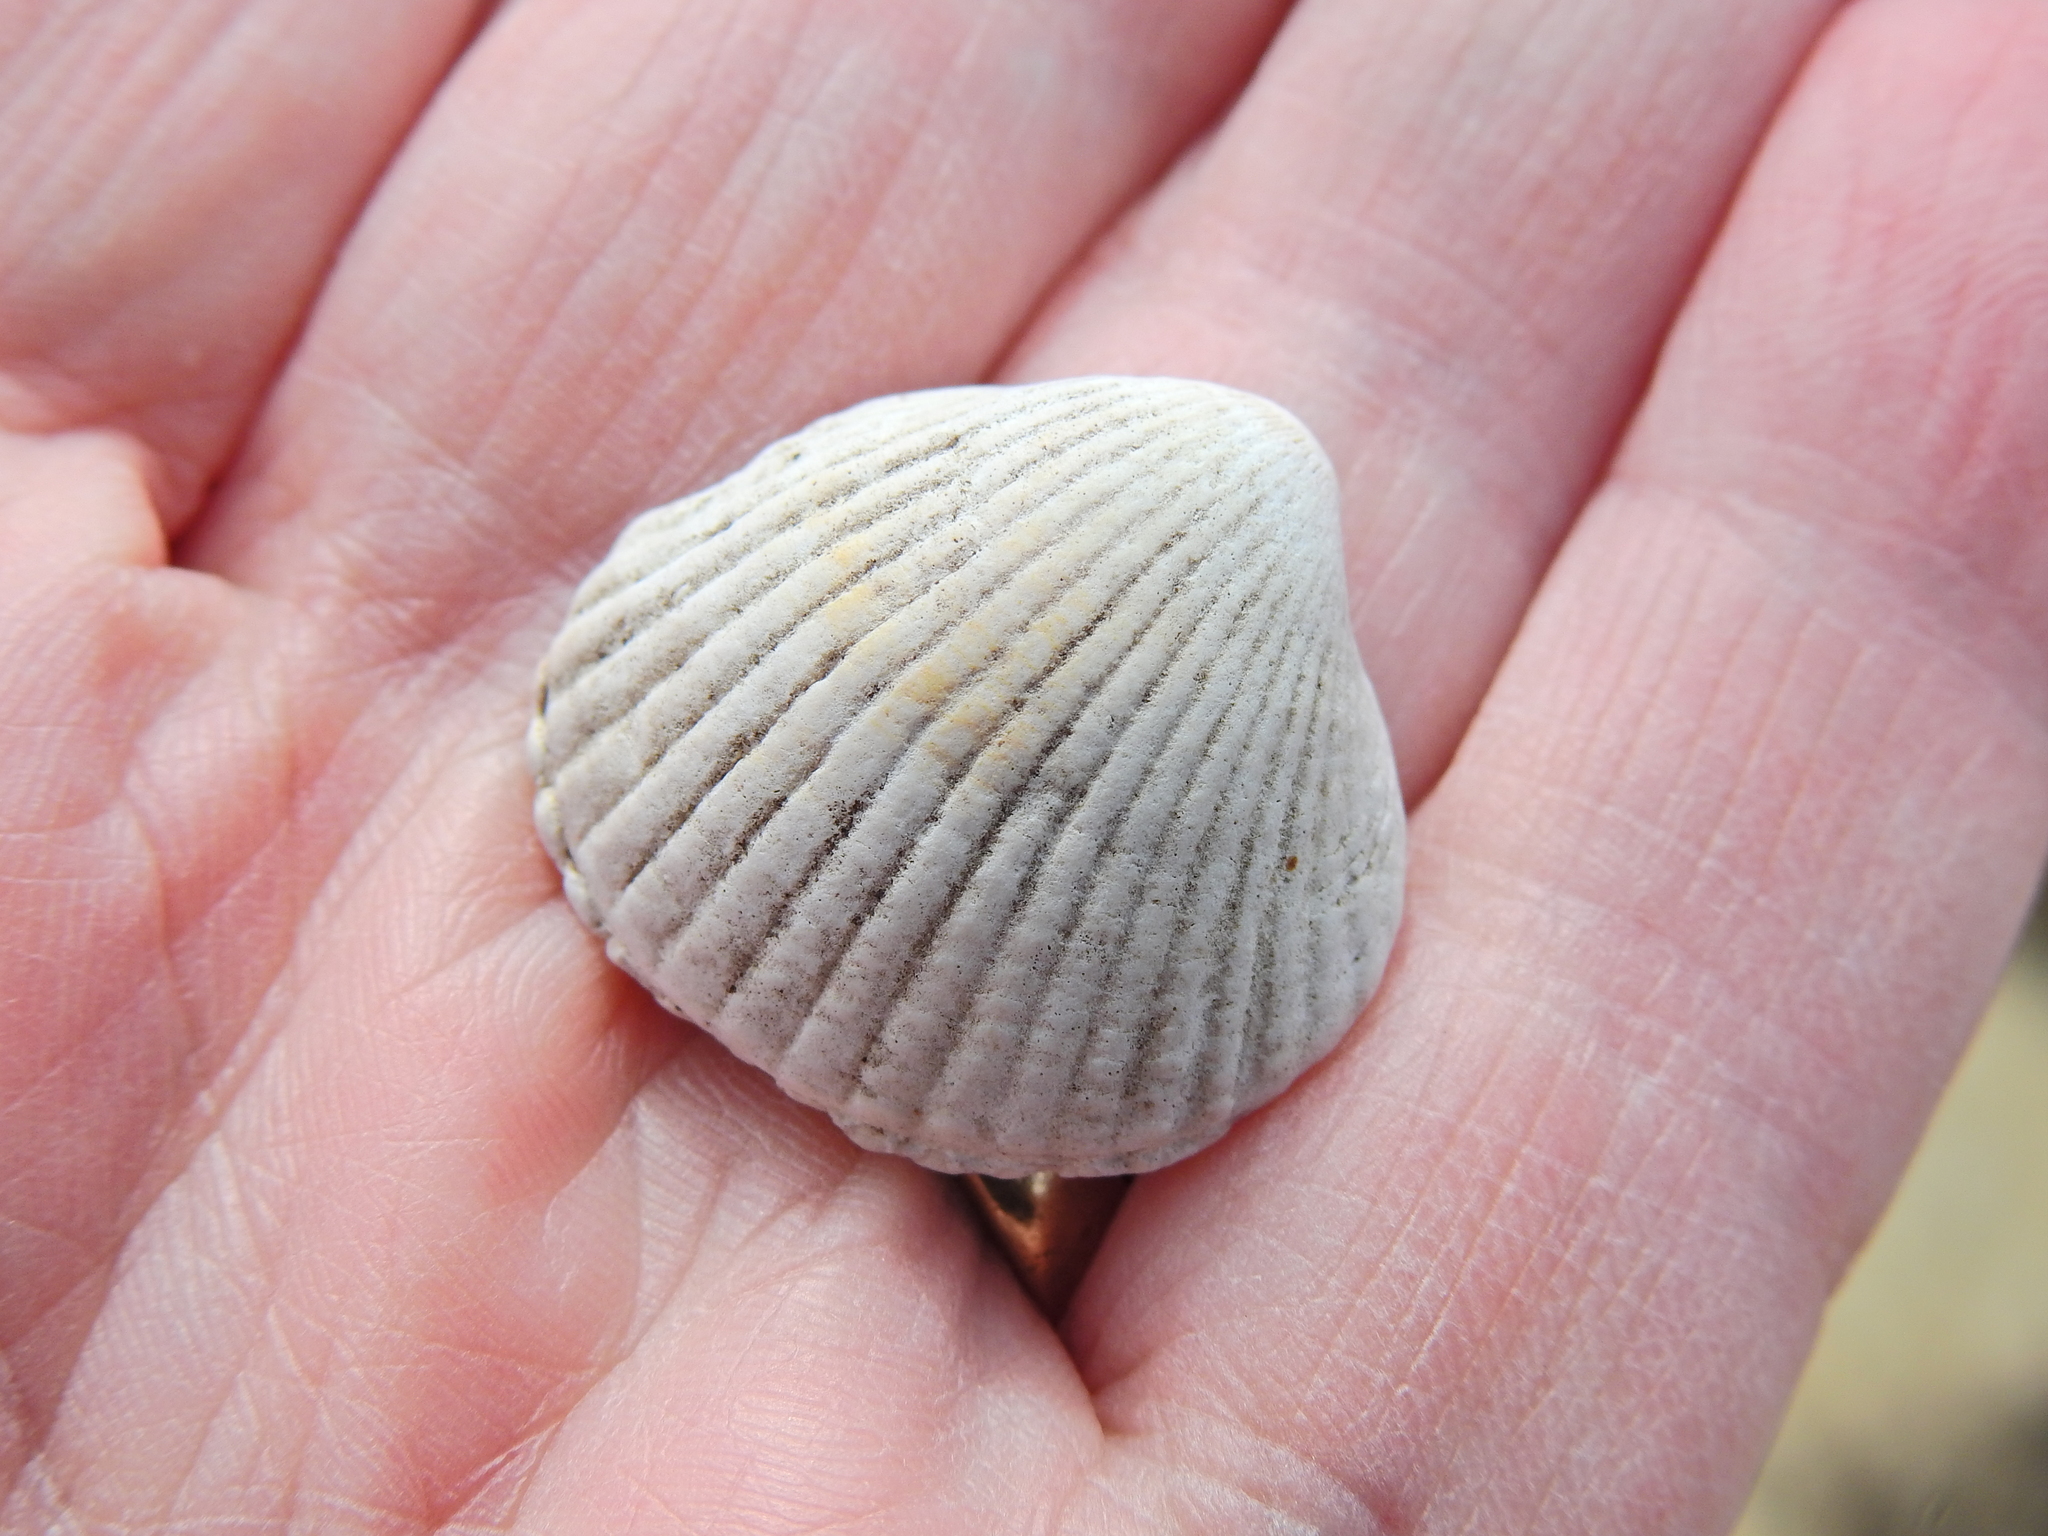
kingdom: Animalia
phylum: Mollusca
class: Bivalvia
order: Cardiida
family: Cardiidae
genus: Cerastoderma
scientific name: Cerastoderma edule
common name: Common cockle
